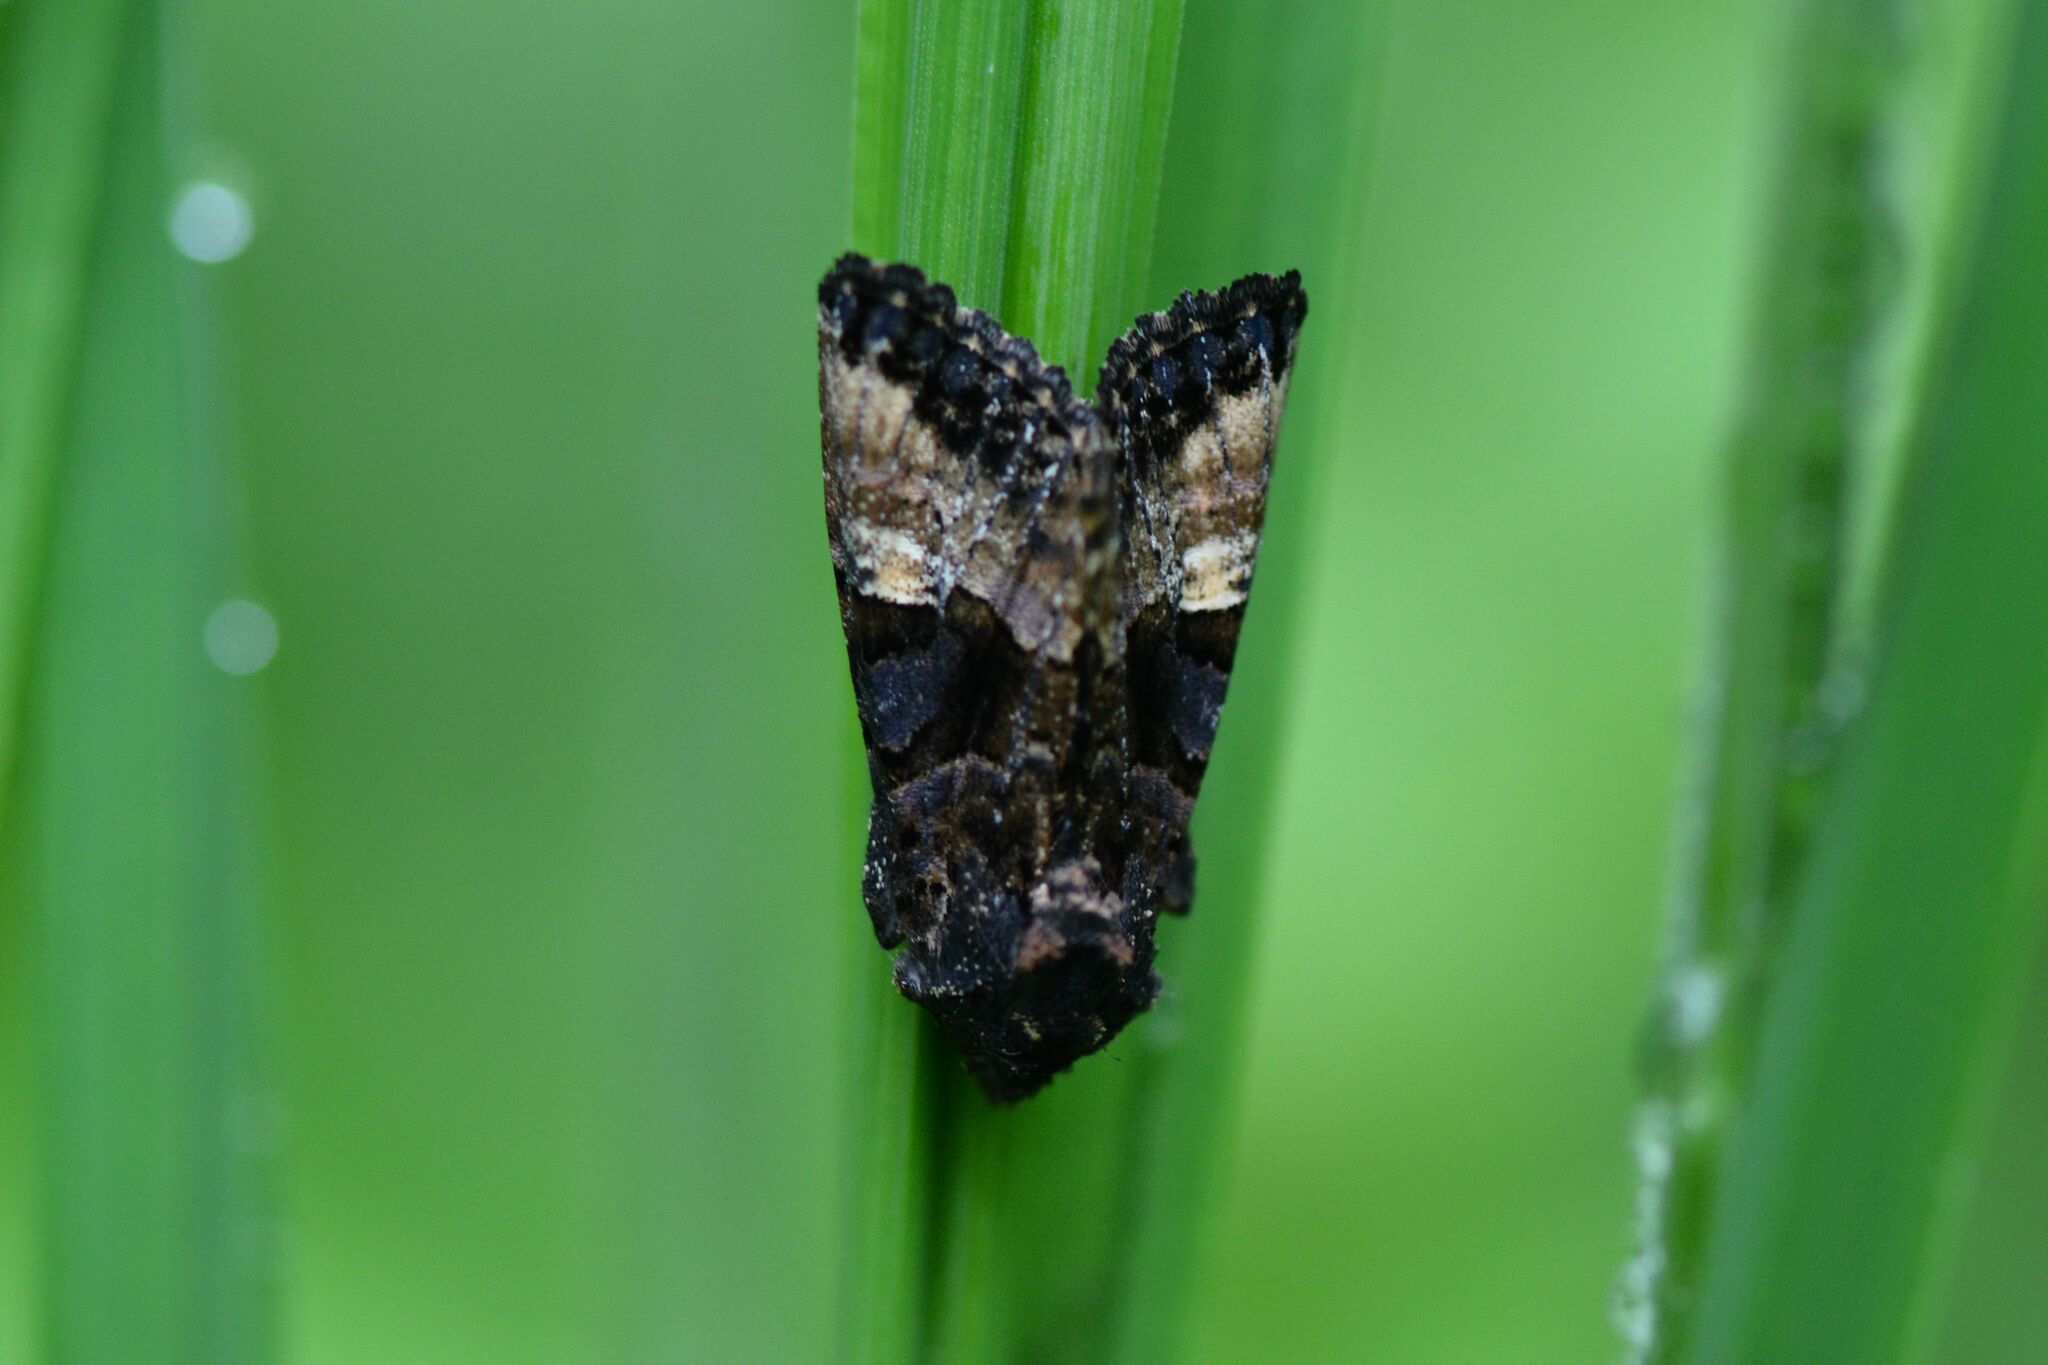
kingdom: Animalia
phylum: Arthropoda
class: Insecta
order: Lepidoptera
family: Noctuidae
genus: Euplexia
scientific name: Euplexia lucipara
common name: Small angle shades
